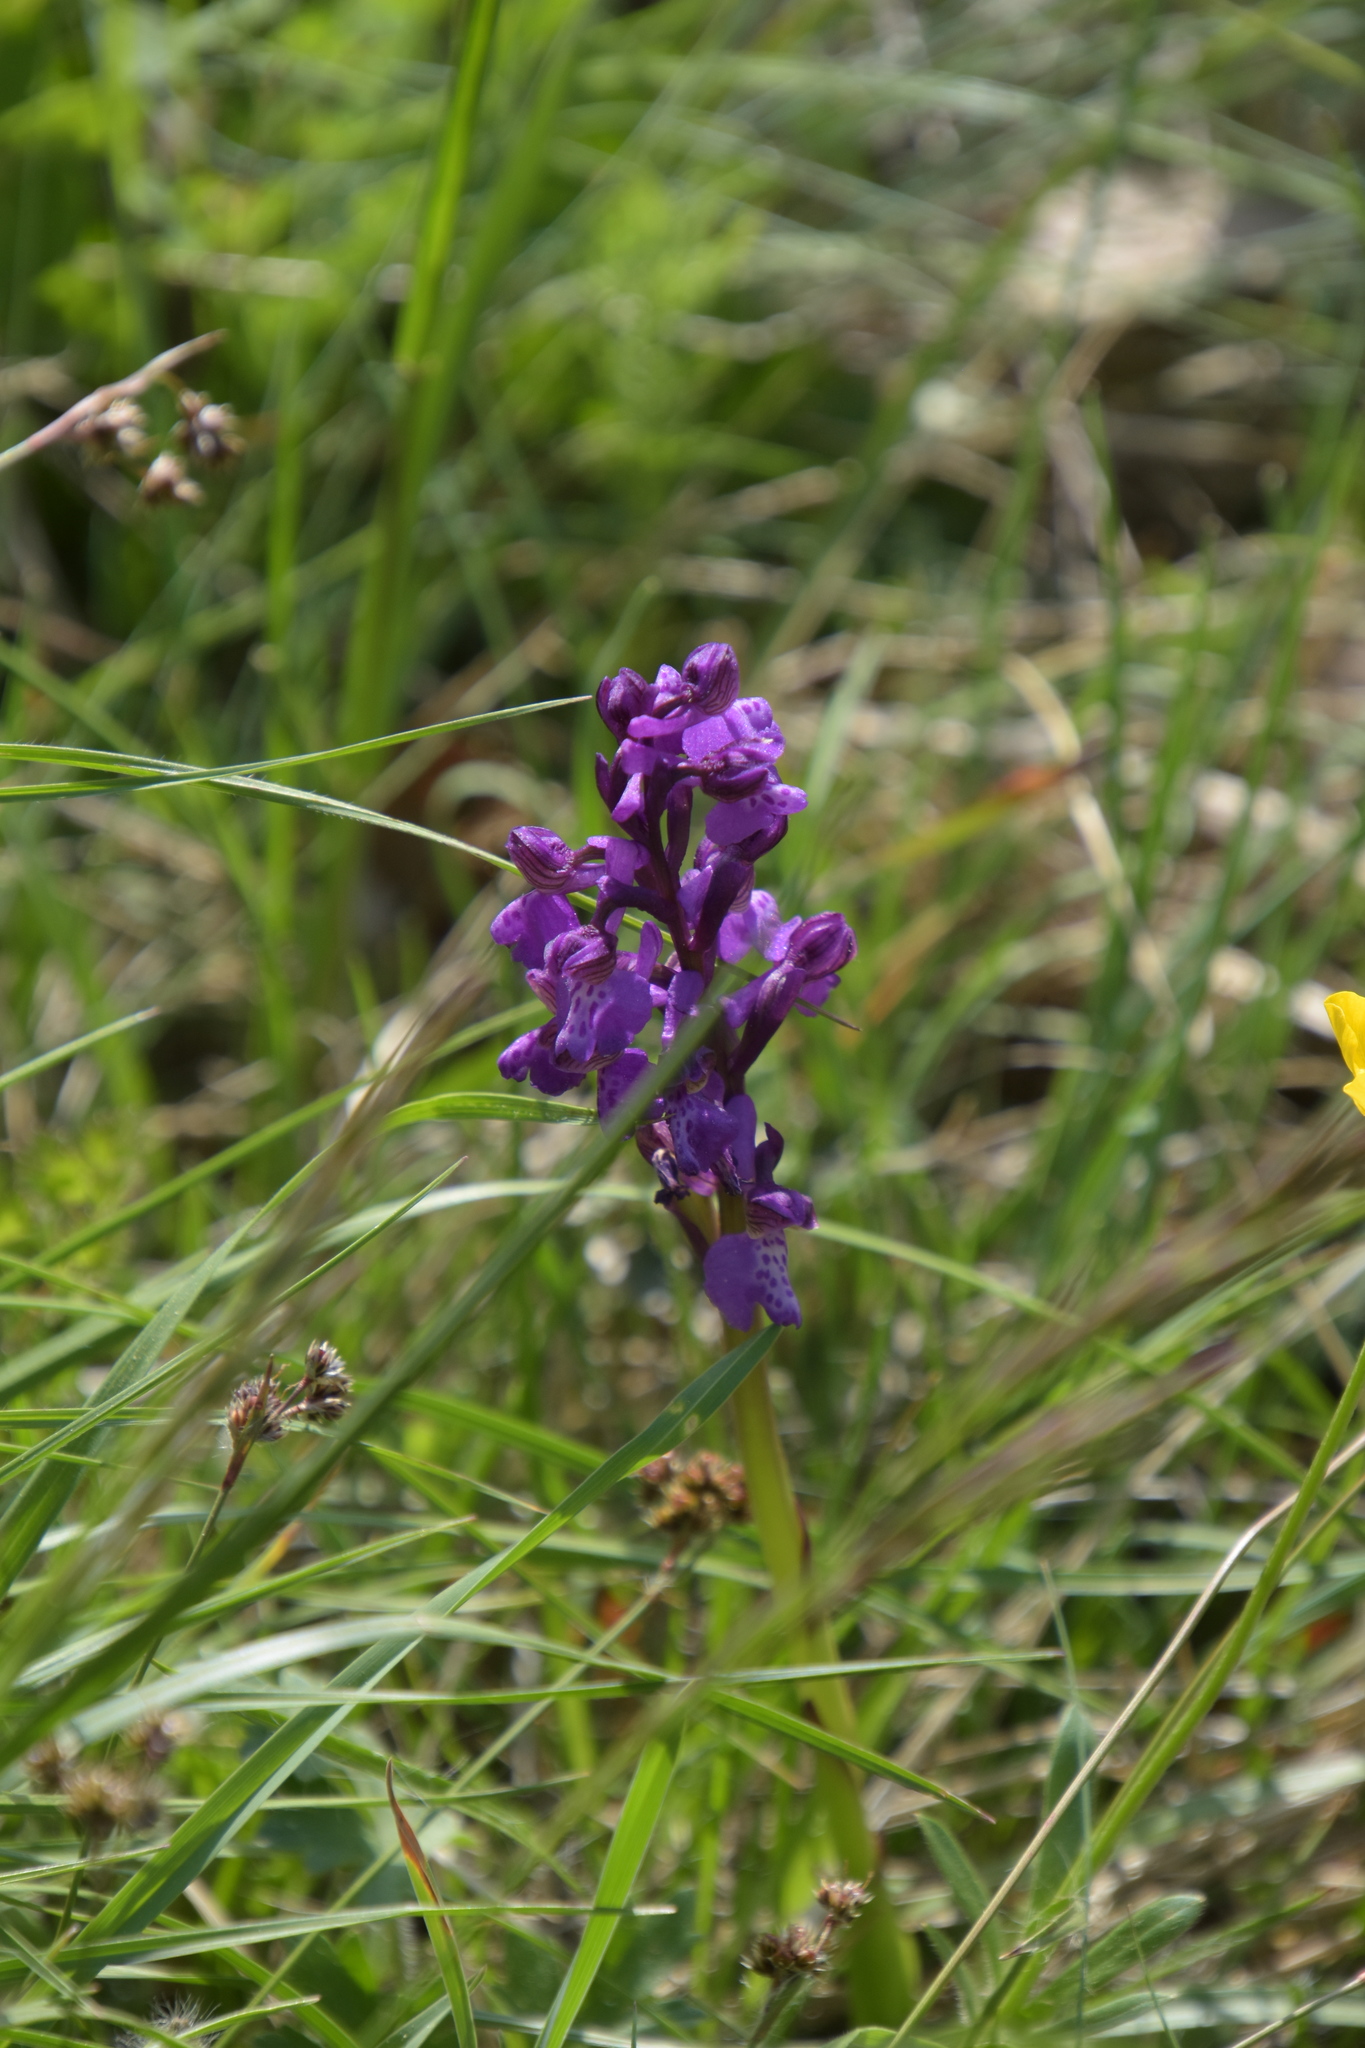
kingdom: Plantae
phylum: Tracheophyta
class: Liliopsida
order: Asparagales
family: Orchidaceae
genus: Anacamptis
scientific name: Anacamptis morio
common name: Green-winged orchid
